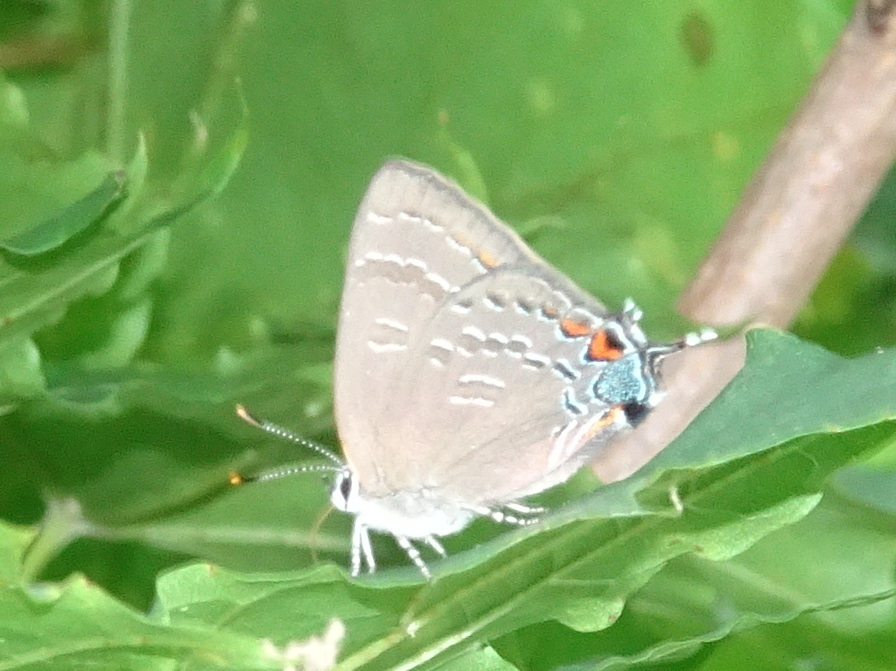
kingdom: Animalia
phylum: Arthropoda
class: Insecta
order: Lepidoptera
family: Lycaenidae
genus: Satyrium
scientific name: Satyrium calanus
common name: Banded hairstreak
